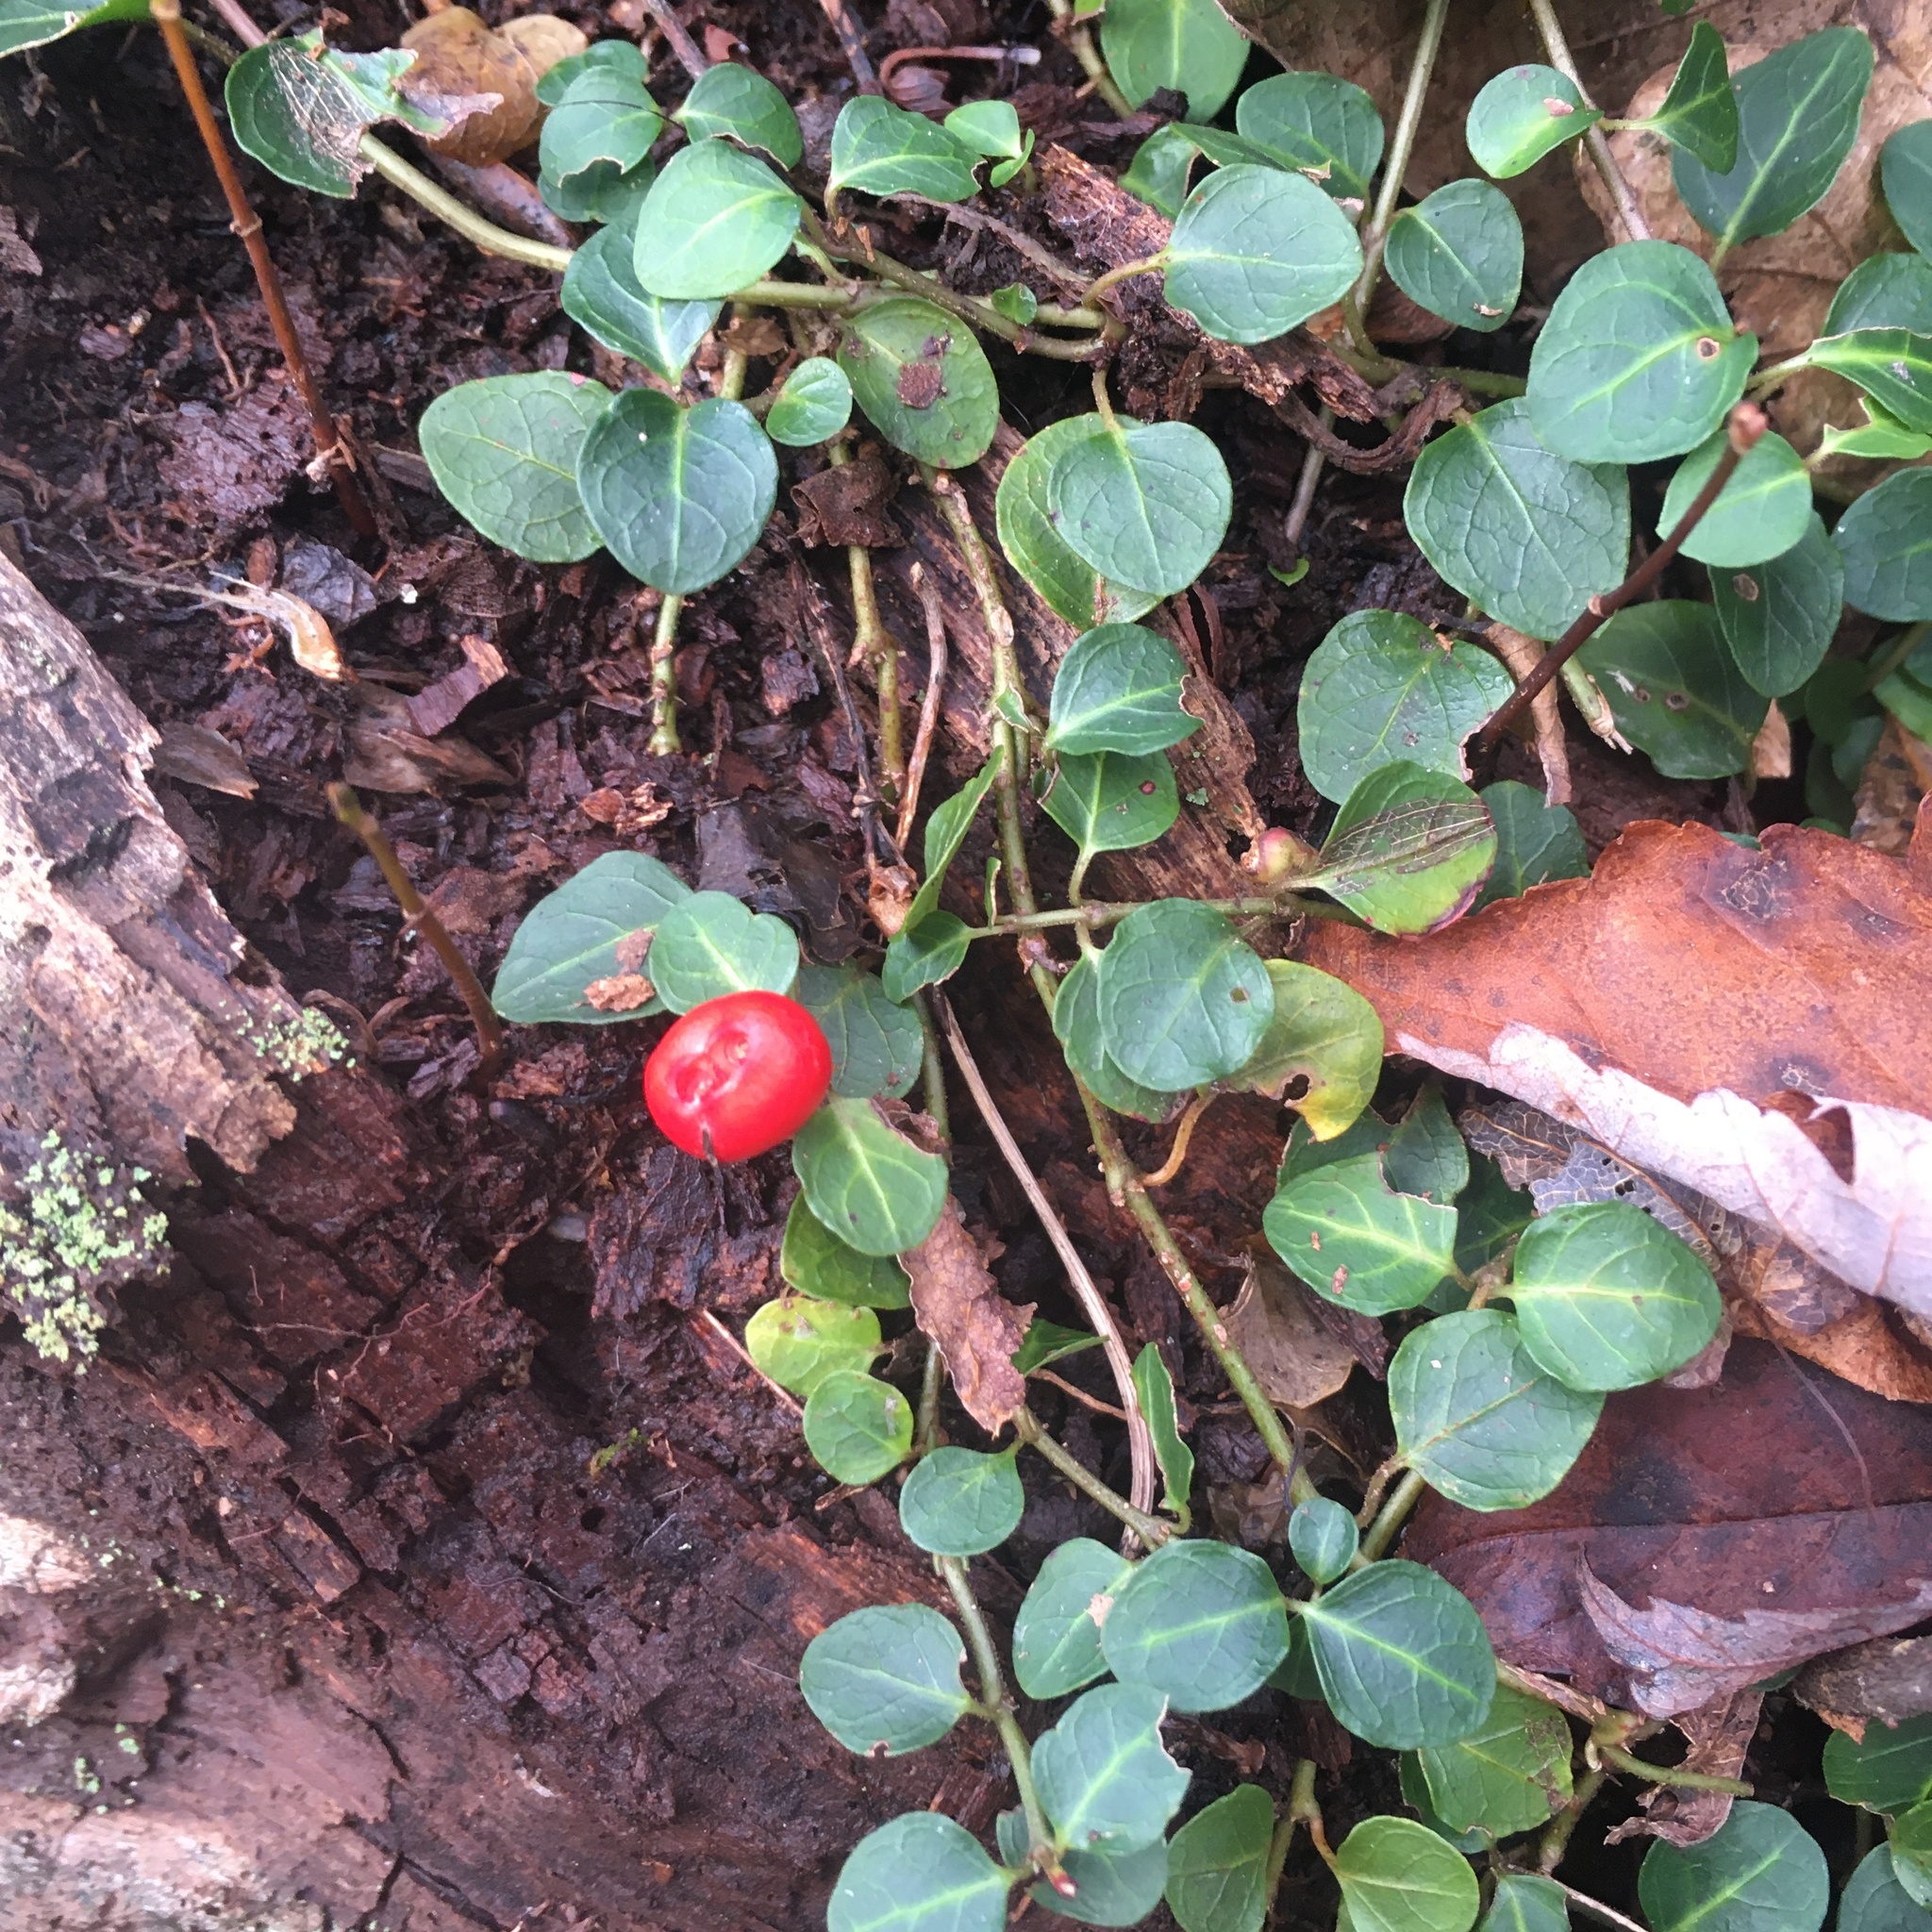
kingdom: Plantae
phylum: Tracheophyta
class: Magnoliopsida
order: Gentianales
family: Rubiaceae
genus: Mitchella
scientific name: Mitchella repens
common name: Partridge-berry
